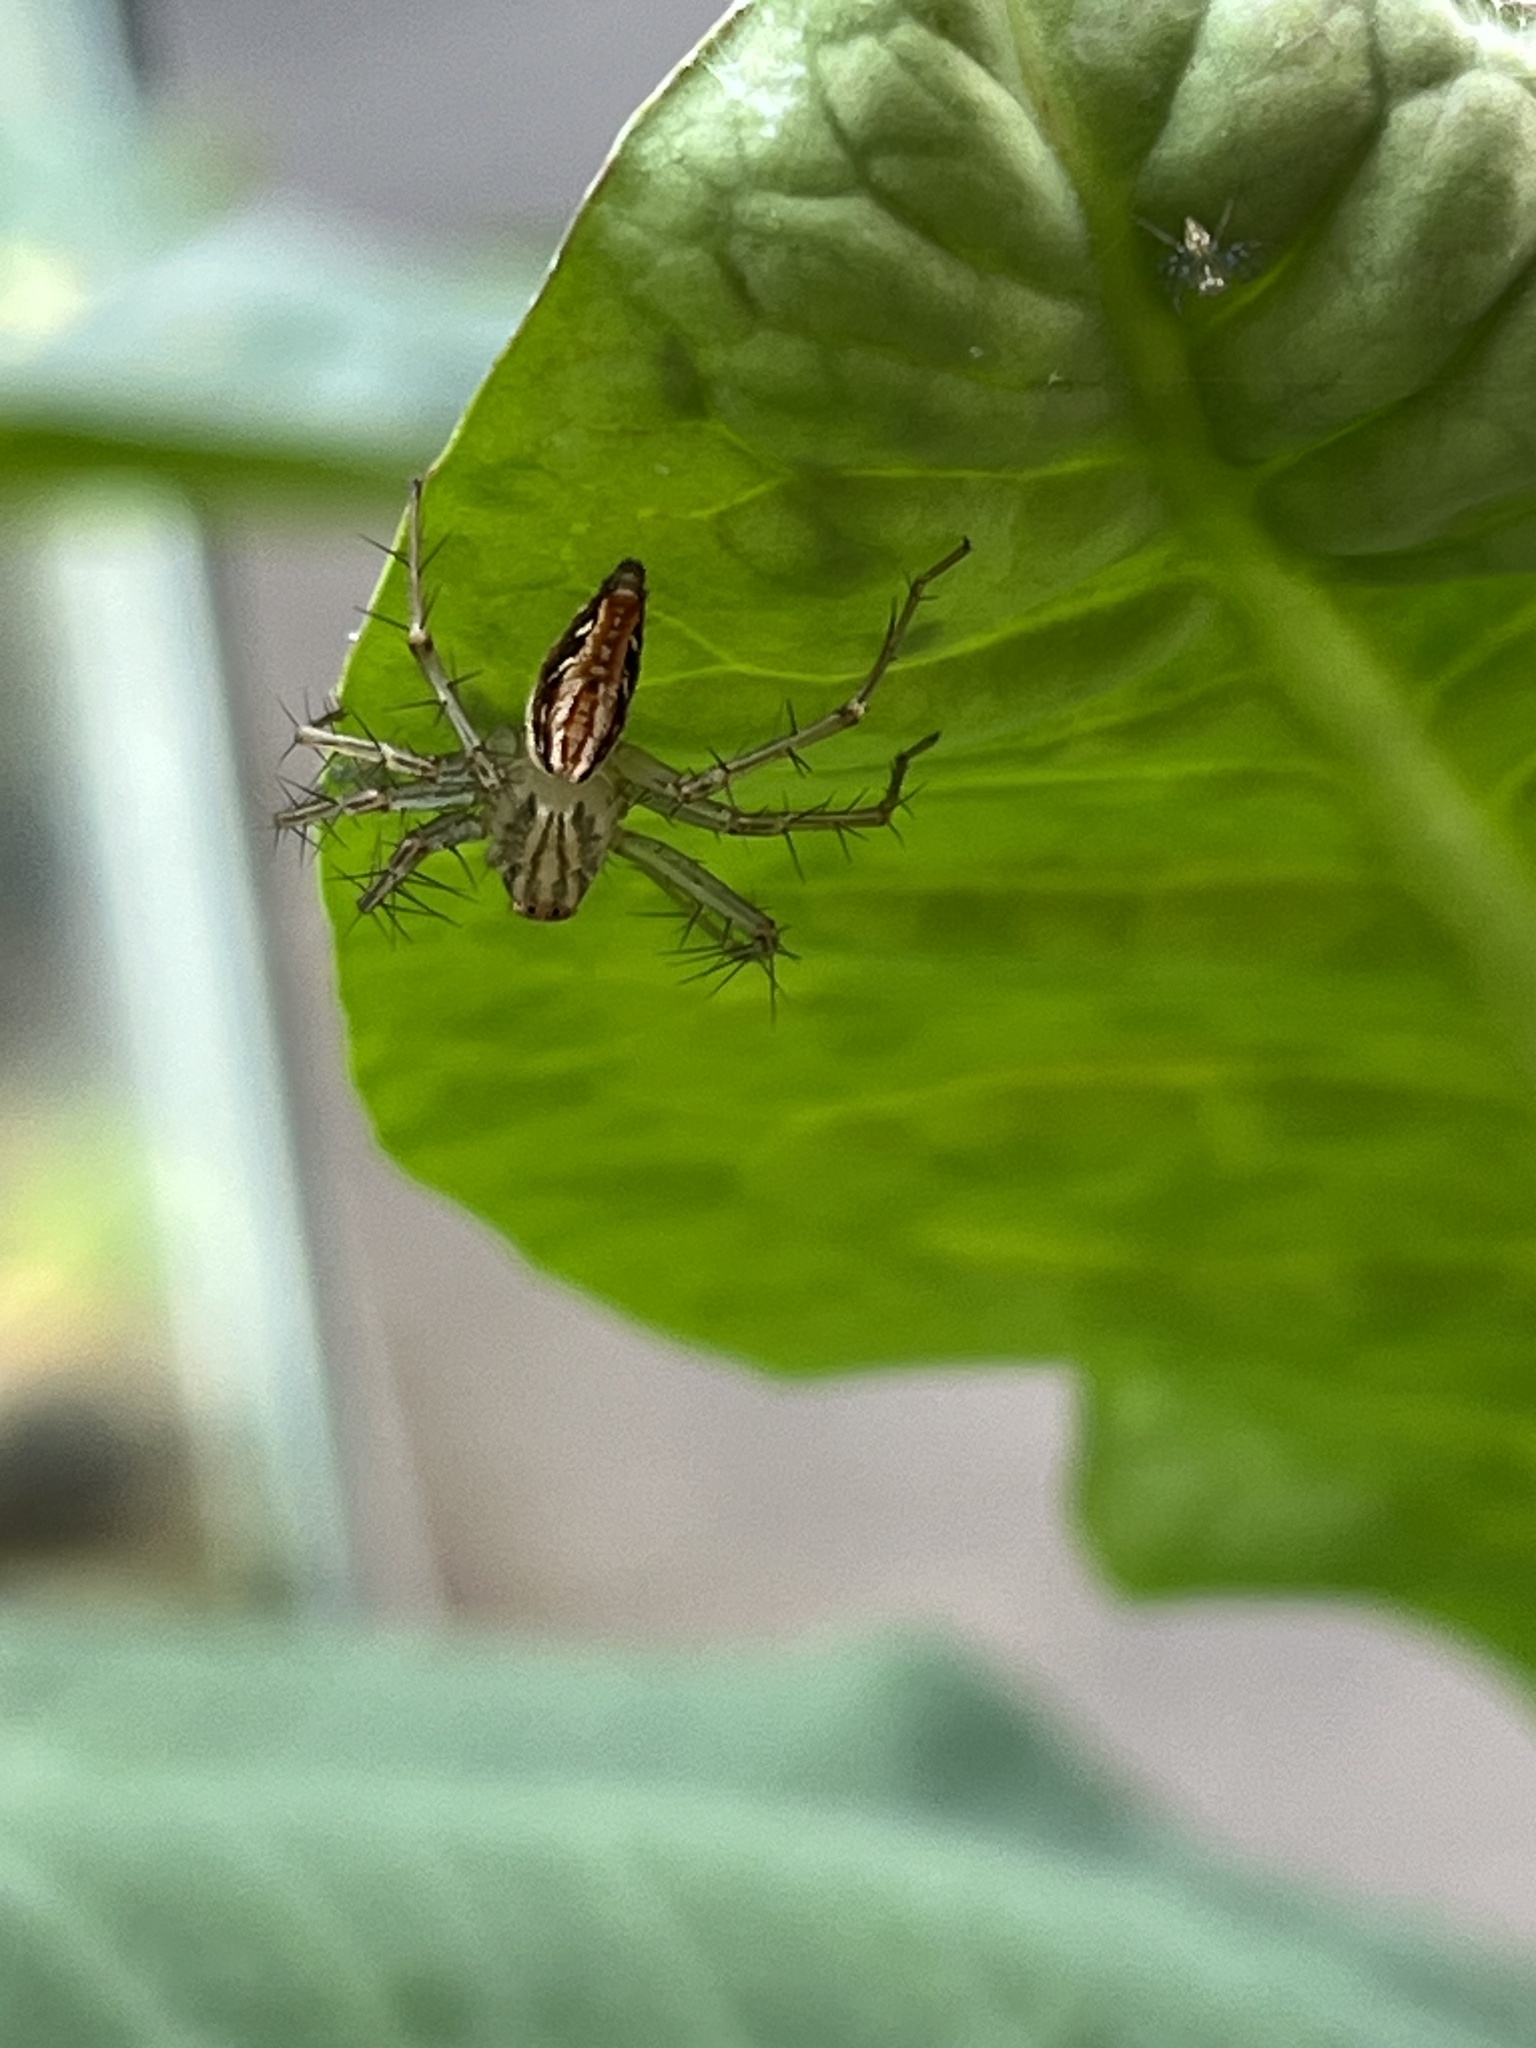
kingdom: Animalia
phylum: Arthropoda
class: Arachnida
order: Araneae
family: Oxyopidae
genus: Oxyopes
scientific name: Oxyopes sertatus
